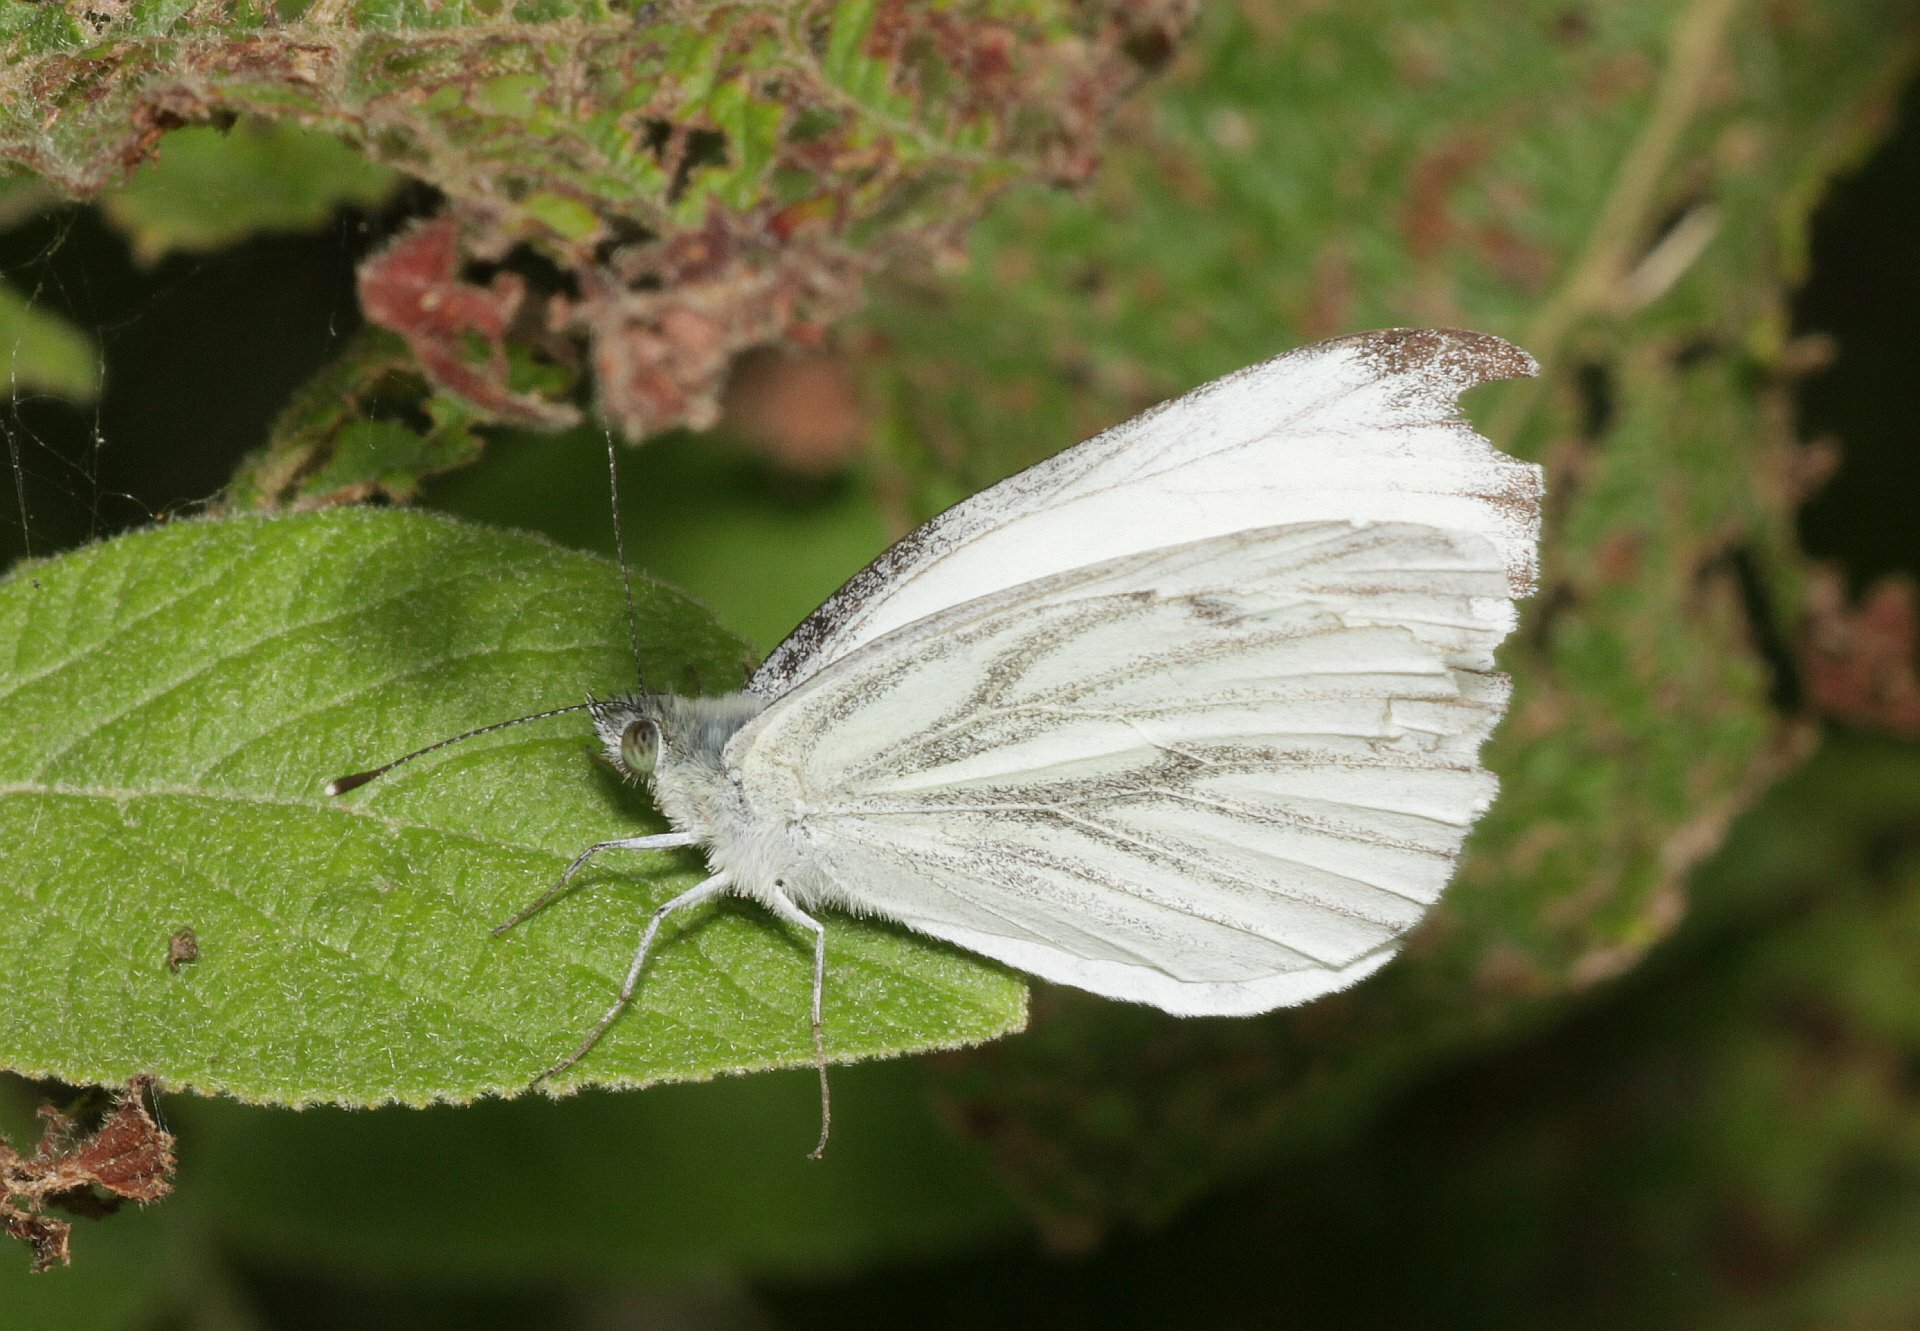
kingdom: Animalia
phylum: Arthropoda
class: Insecta
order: Lepidoptera
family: Pieridae
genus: Pieris
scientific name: Pieris napi
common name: Green-veined white
